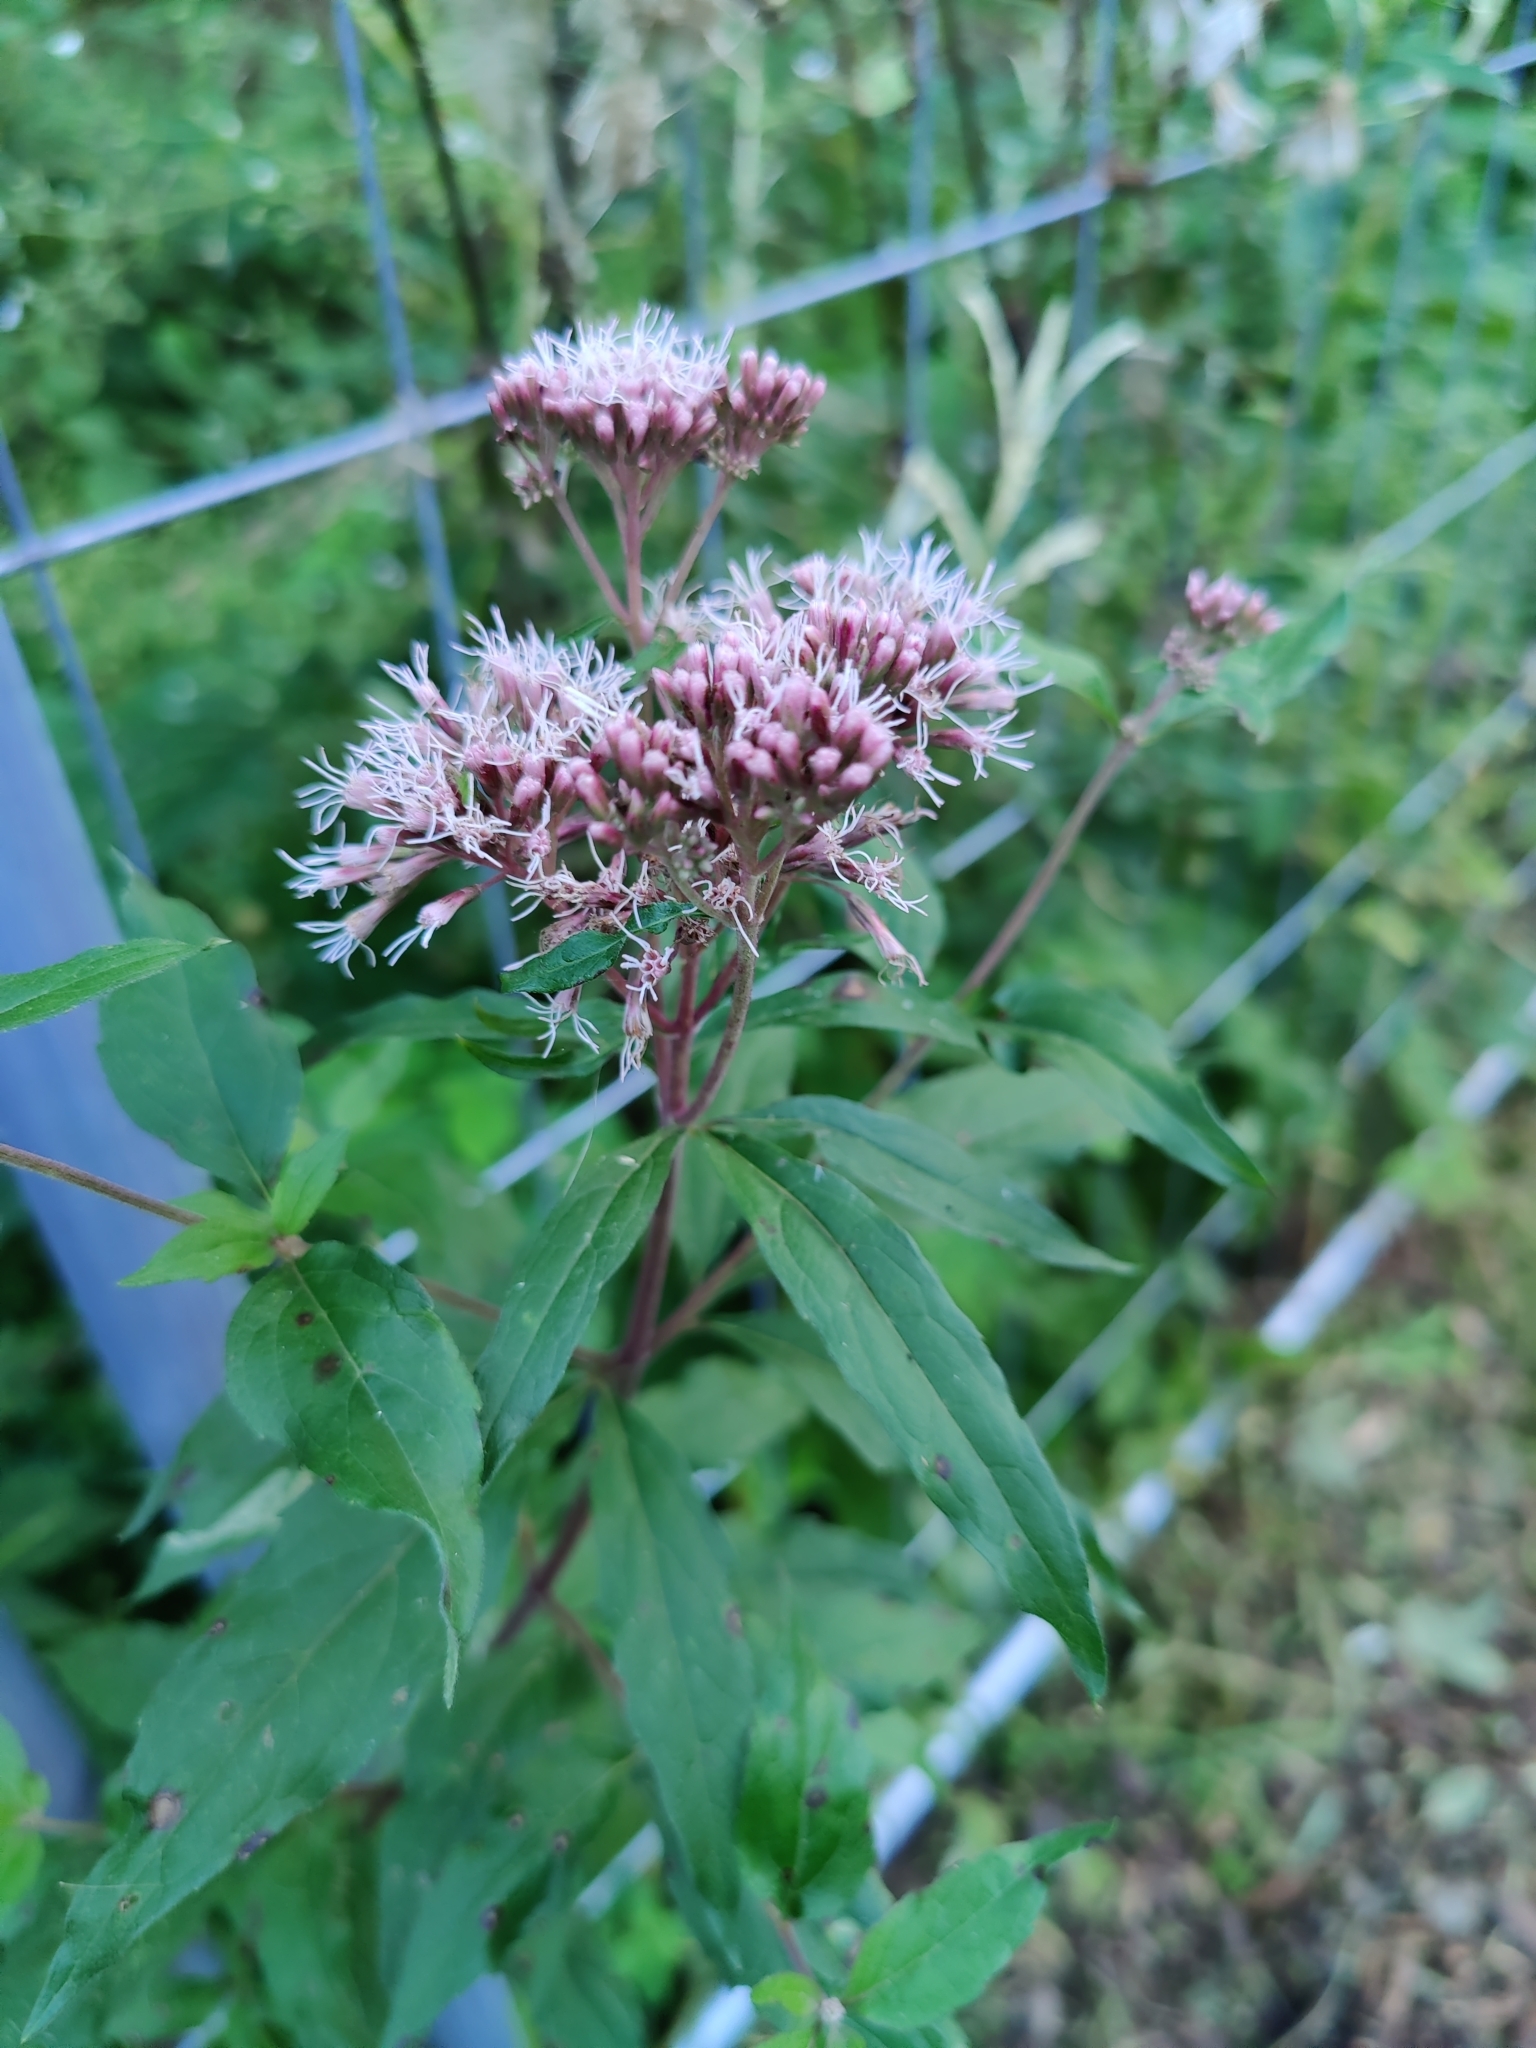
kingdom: Plantae
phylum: Tracheophyta
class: Magnoliopsida
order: Asterales
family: Asteraceae
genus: Eupatorium
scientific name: Eupatorium cannabinum
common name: Hemp-agrimony
